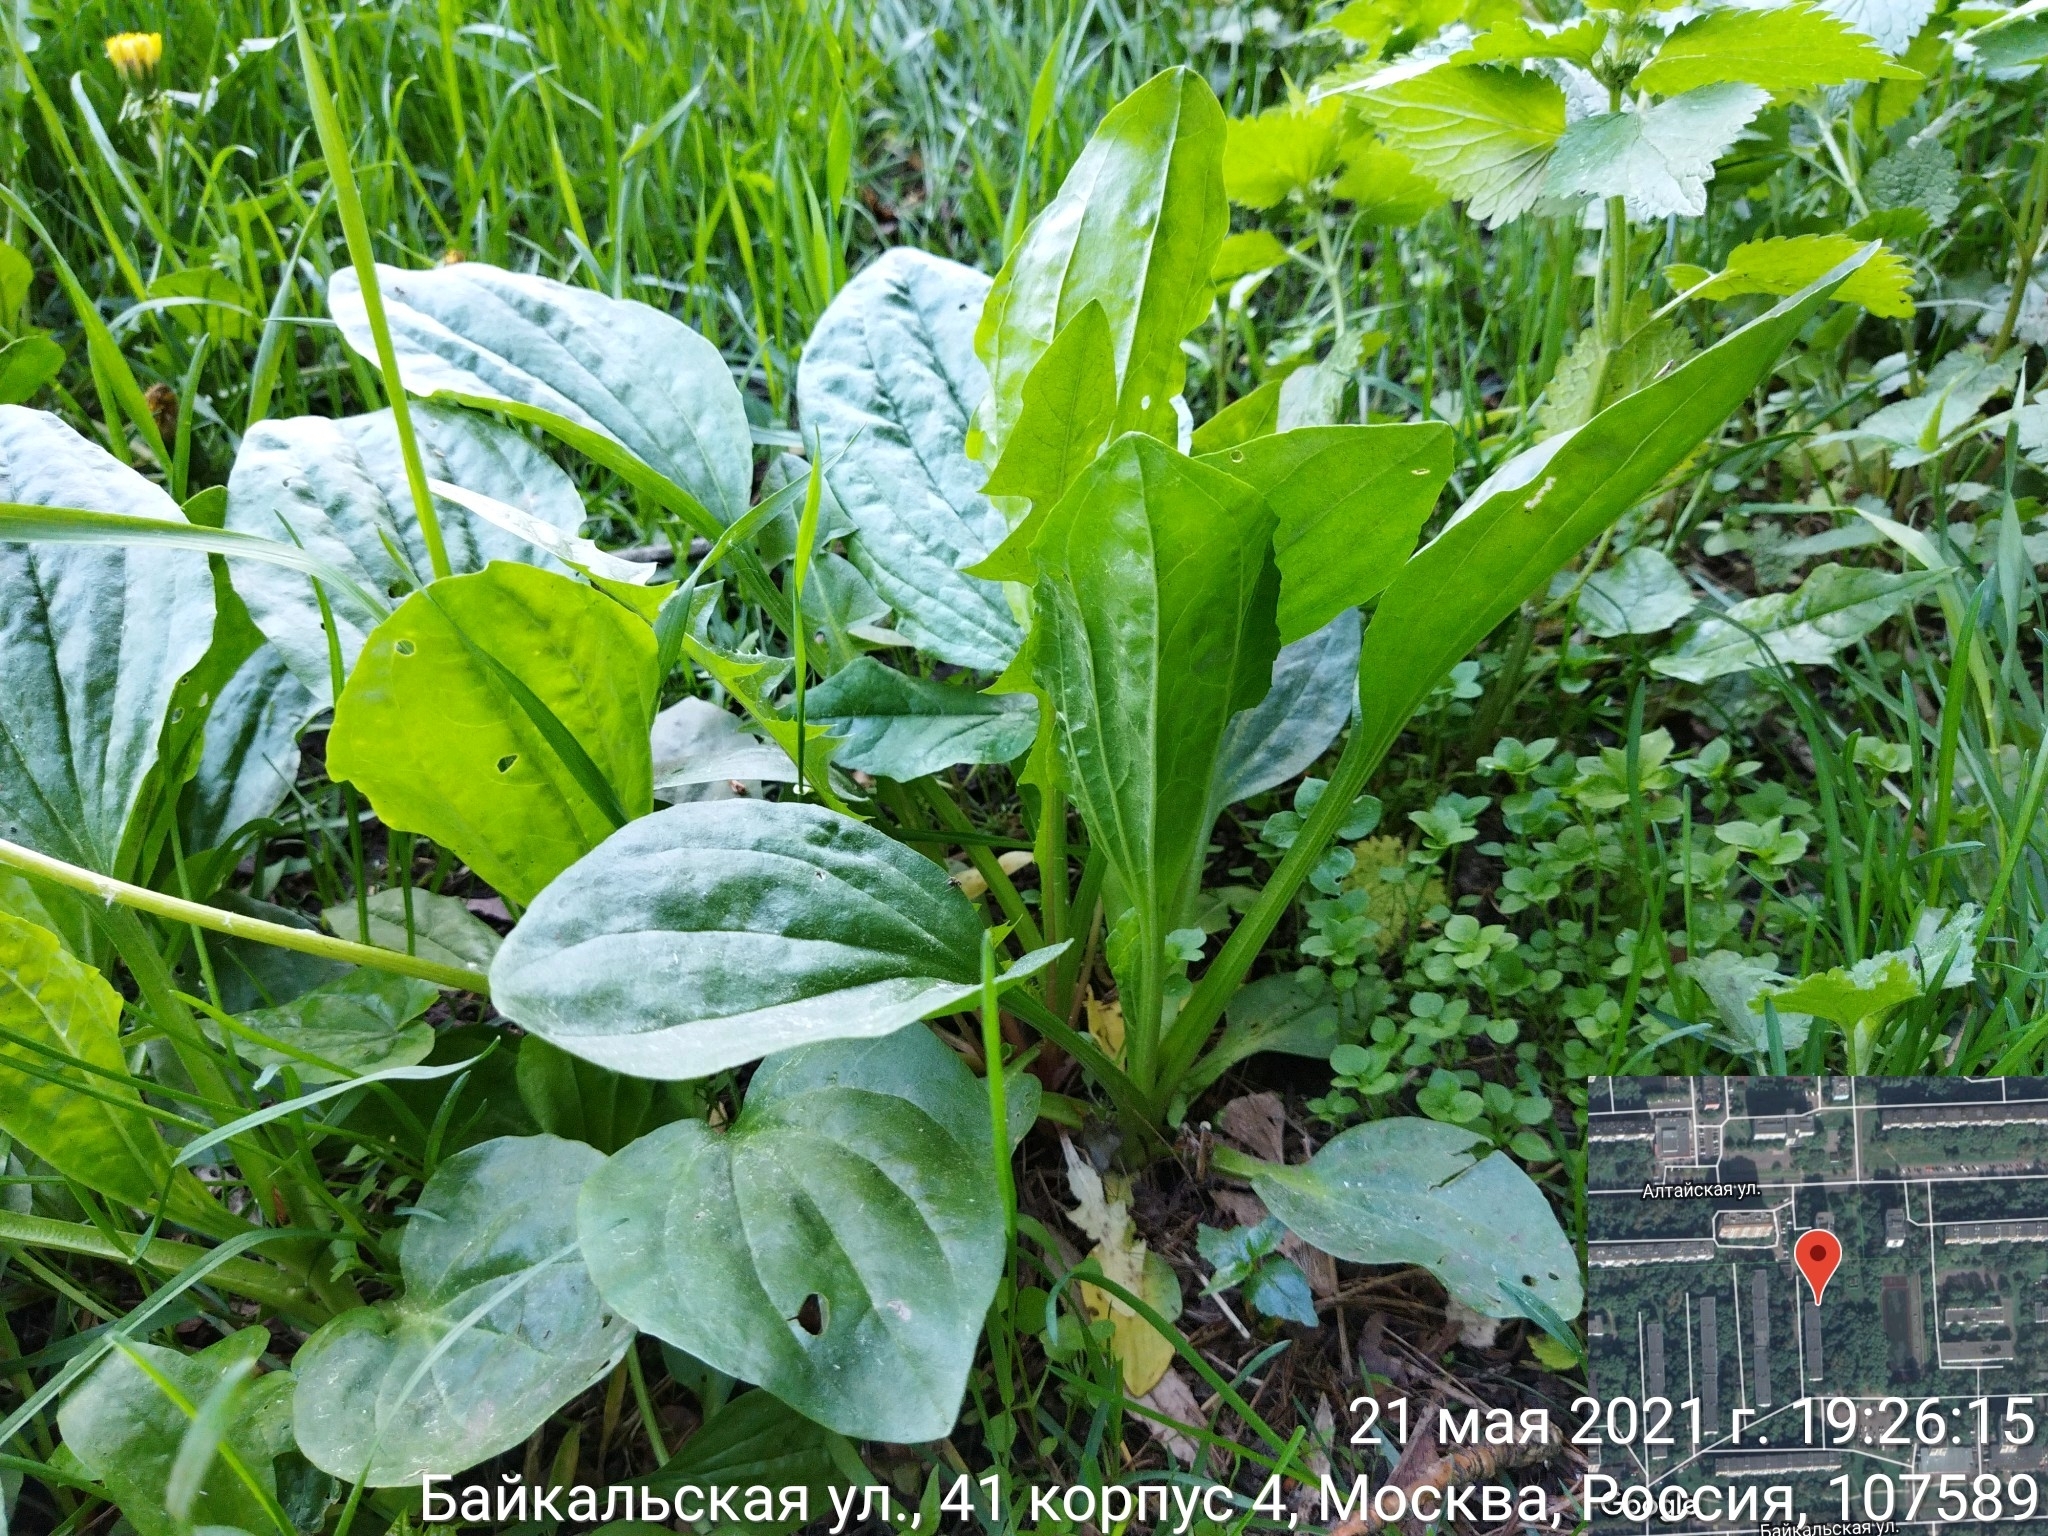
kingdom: Plantae
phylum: Tracheophyta
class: Magnoliopsida
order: Lamiales
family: Plantaginaceae
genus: Plantago
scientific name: Plantago major
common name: Common plantain
